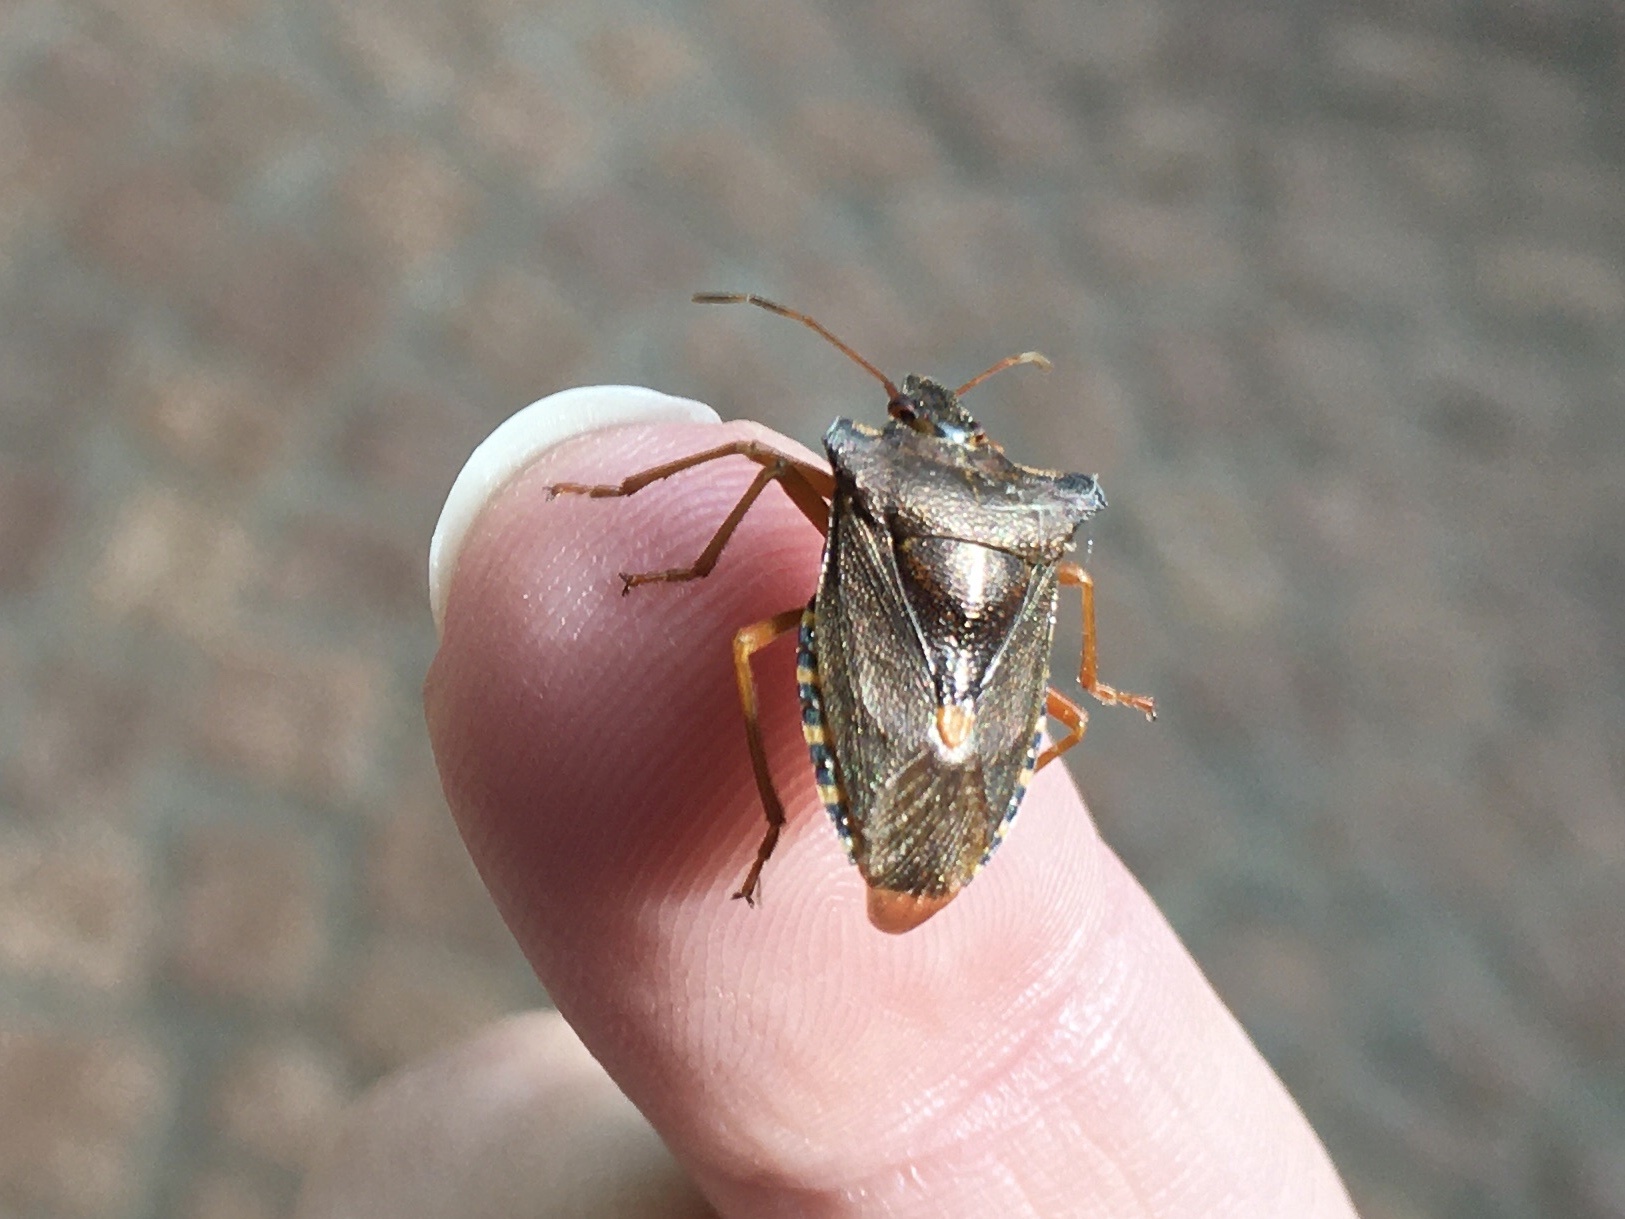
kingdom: Animalia
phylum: Arthropoda
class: Insecta
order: Hemiptera
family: Pentatomidae
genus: Pentatoma
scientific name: Pentatoma rufipes
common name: Forest bug
